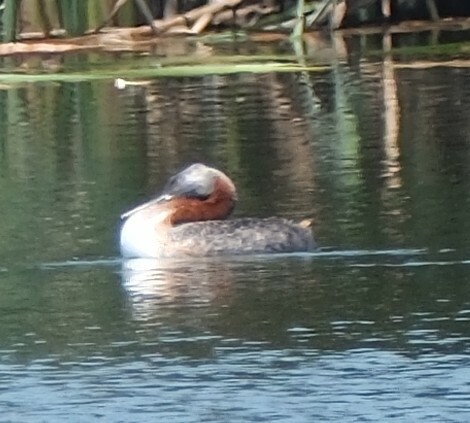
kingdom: Animalia
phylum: Chordata
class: Aves
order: Podicipediformes
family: Podicipedidae
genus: Podiceps
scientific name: Podiceps major
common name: Great grebe
